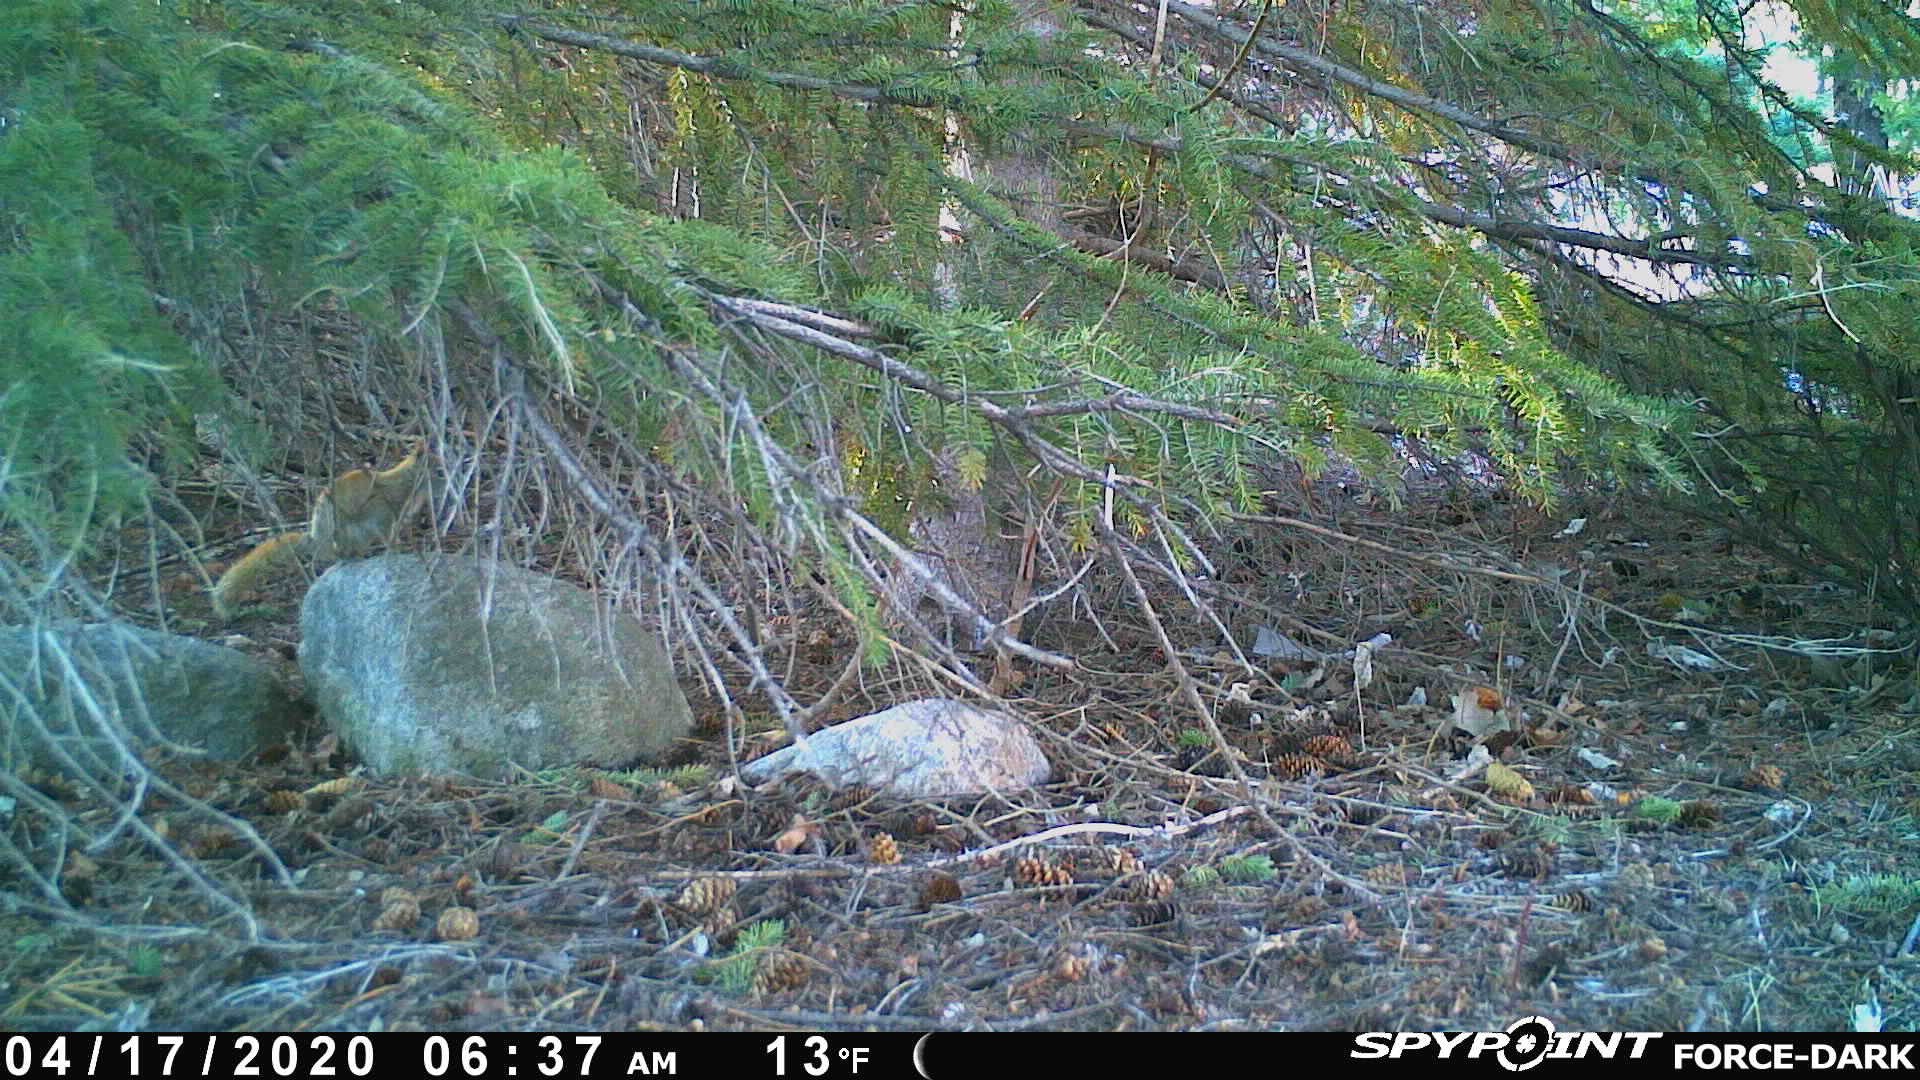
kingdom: Animalia
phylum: Chordata
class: Mammalia
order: Rodentia
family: Sciuridae
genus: Tamiasciurus
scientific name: Tamiasciurus hudsonicus
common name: Red squirrel
